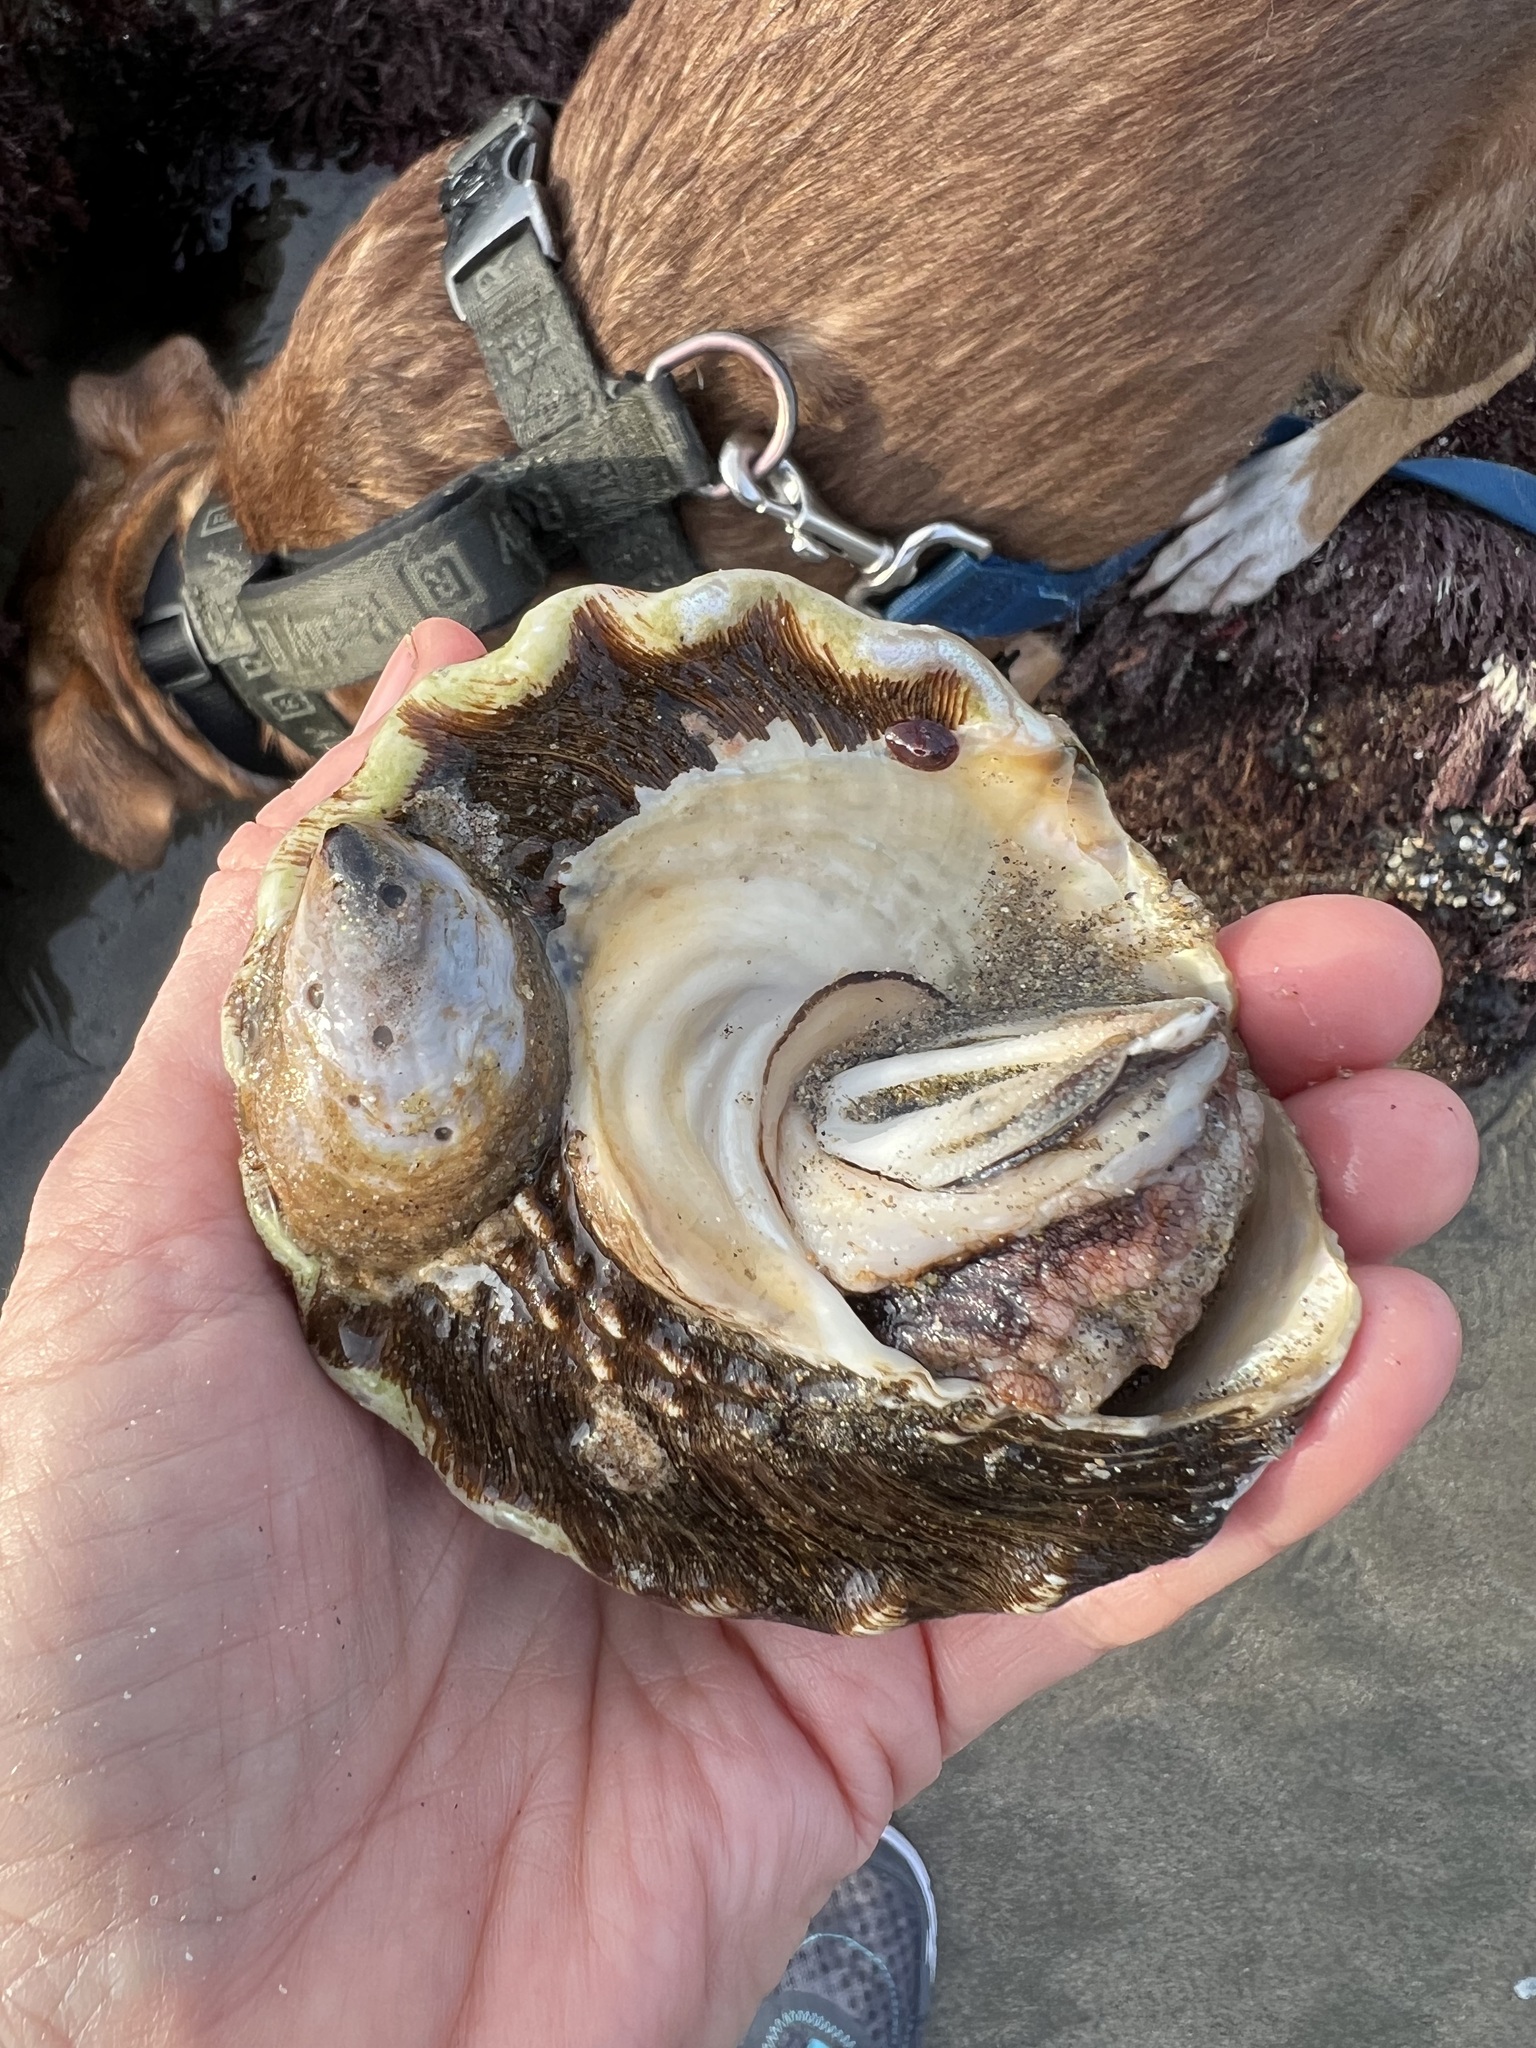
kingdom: Animalia
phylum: Mollusca
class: Gastropoda
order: Littorinimorpha
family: Calyptraeidae
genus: Crepidula
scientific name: Crepidula onyx
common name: Onyx slippersnail
